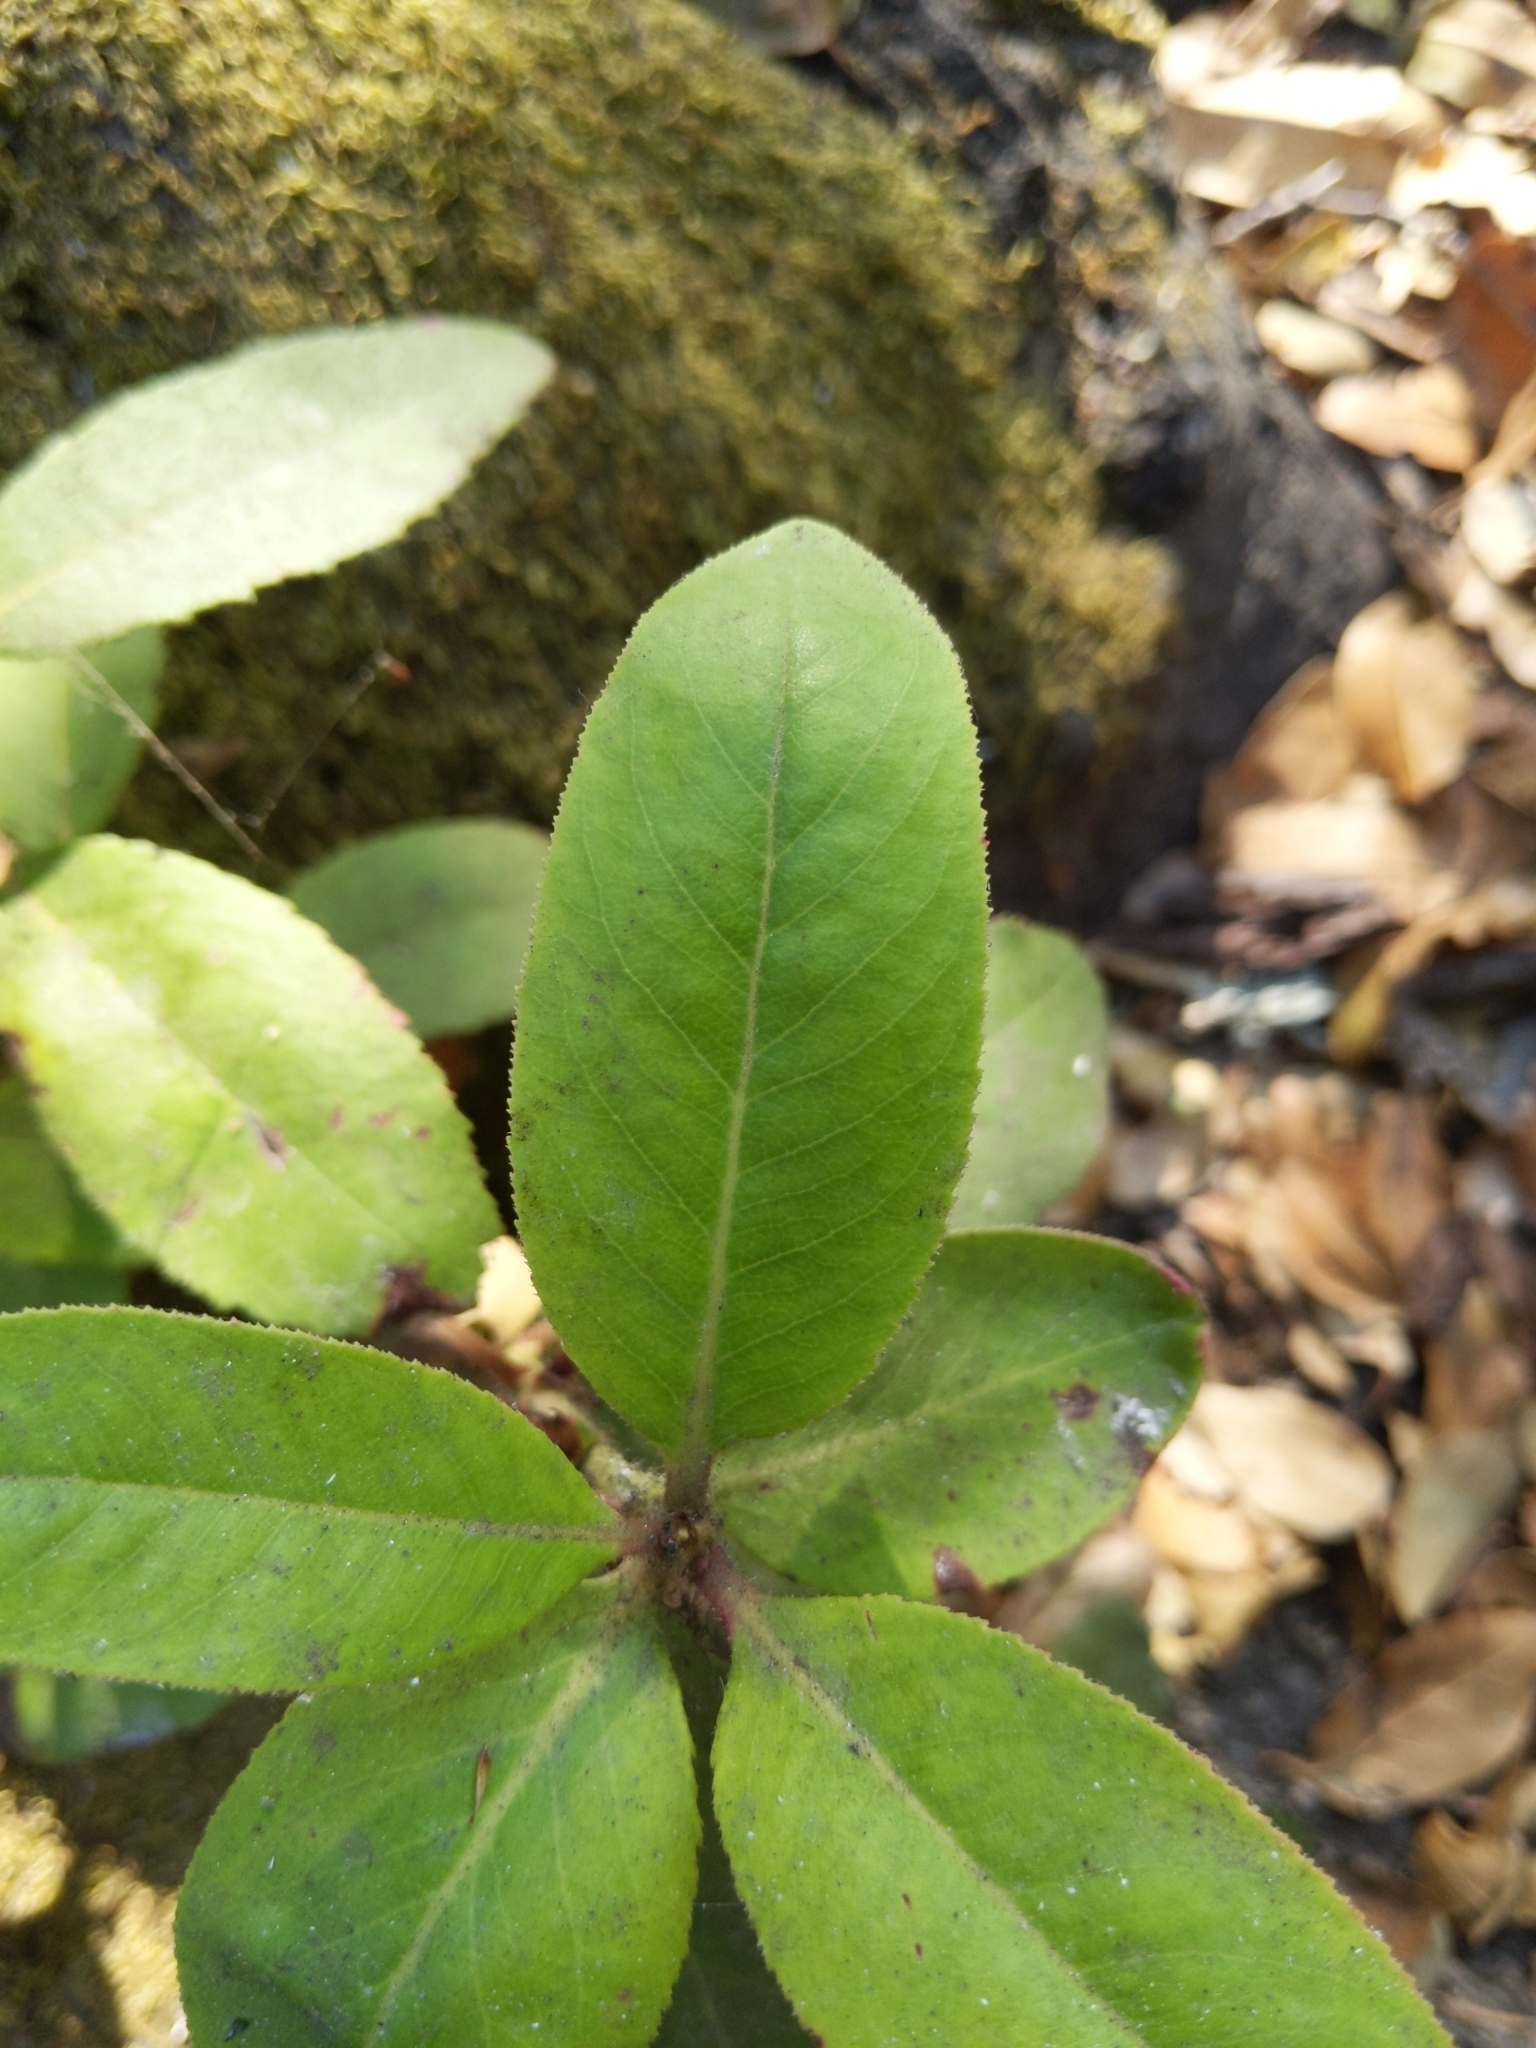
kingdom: Plantae
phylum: Tracheophyta
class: Magnoliopsida
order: Ericales
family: Ericaceae
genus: Arbutus
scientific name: Arbutus menziesii
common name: Pacific madrone
